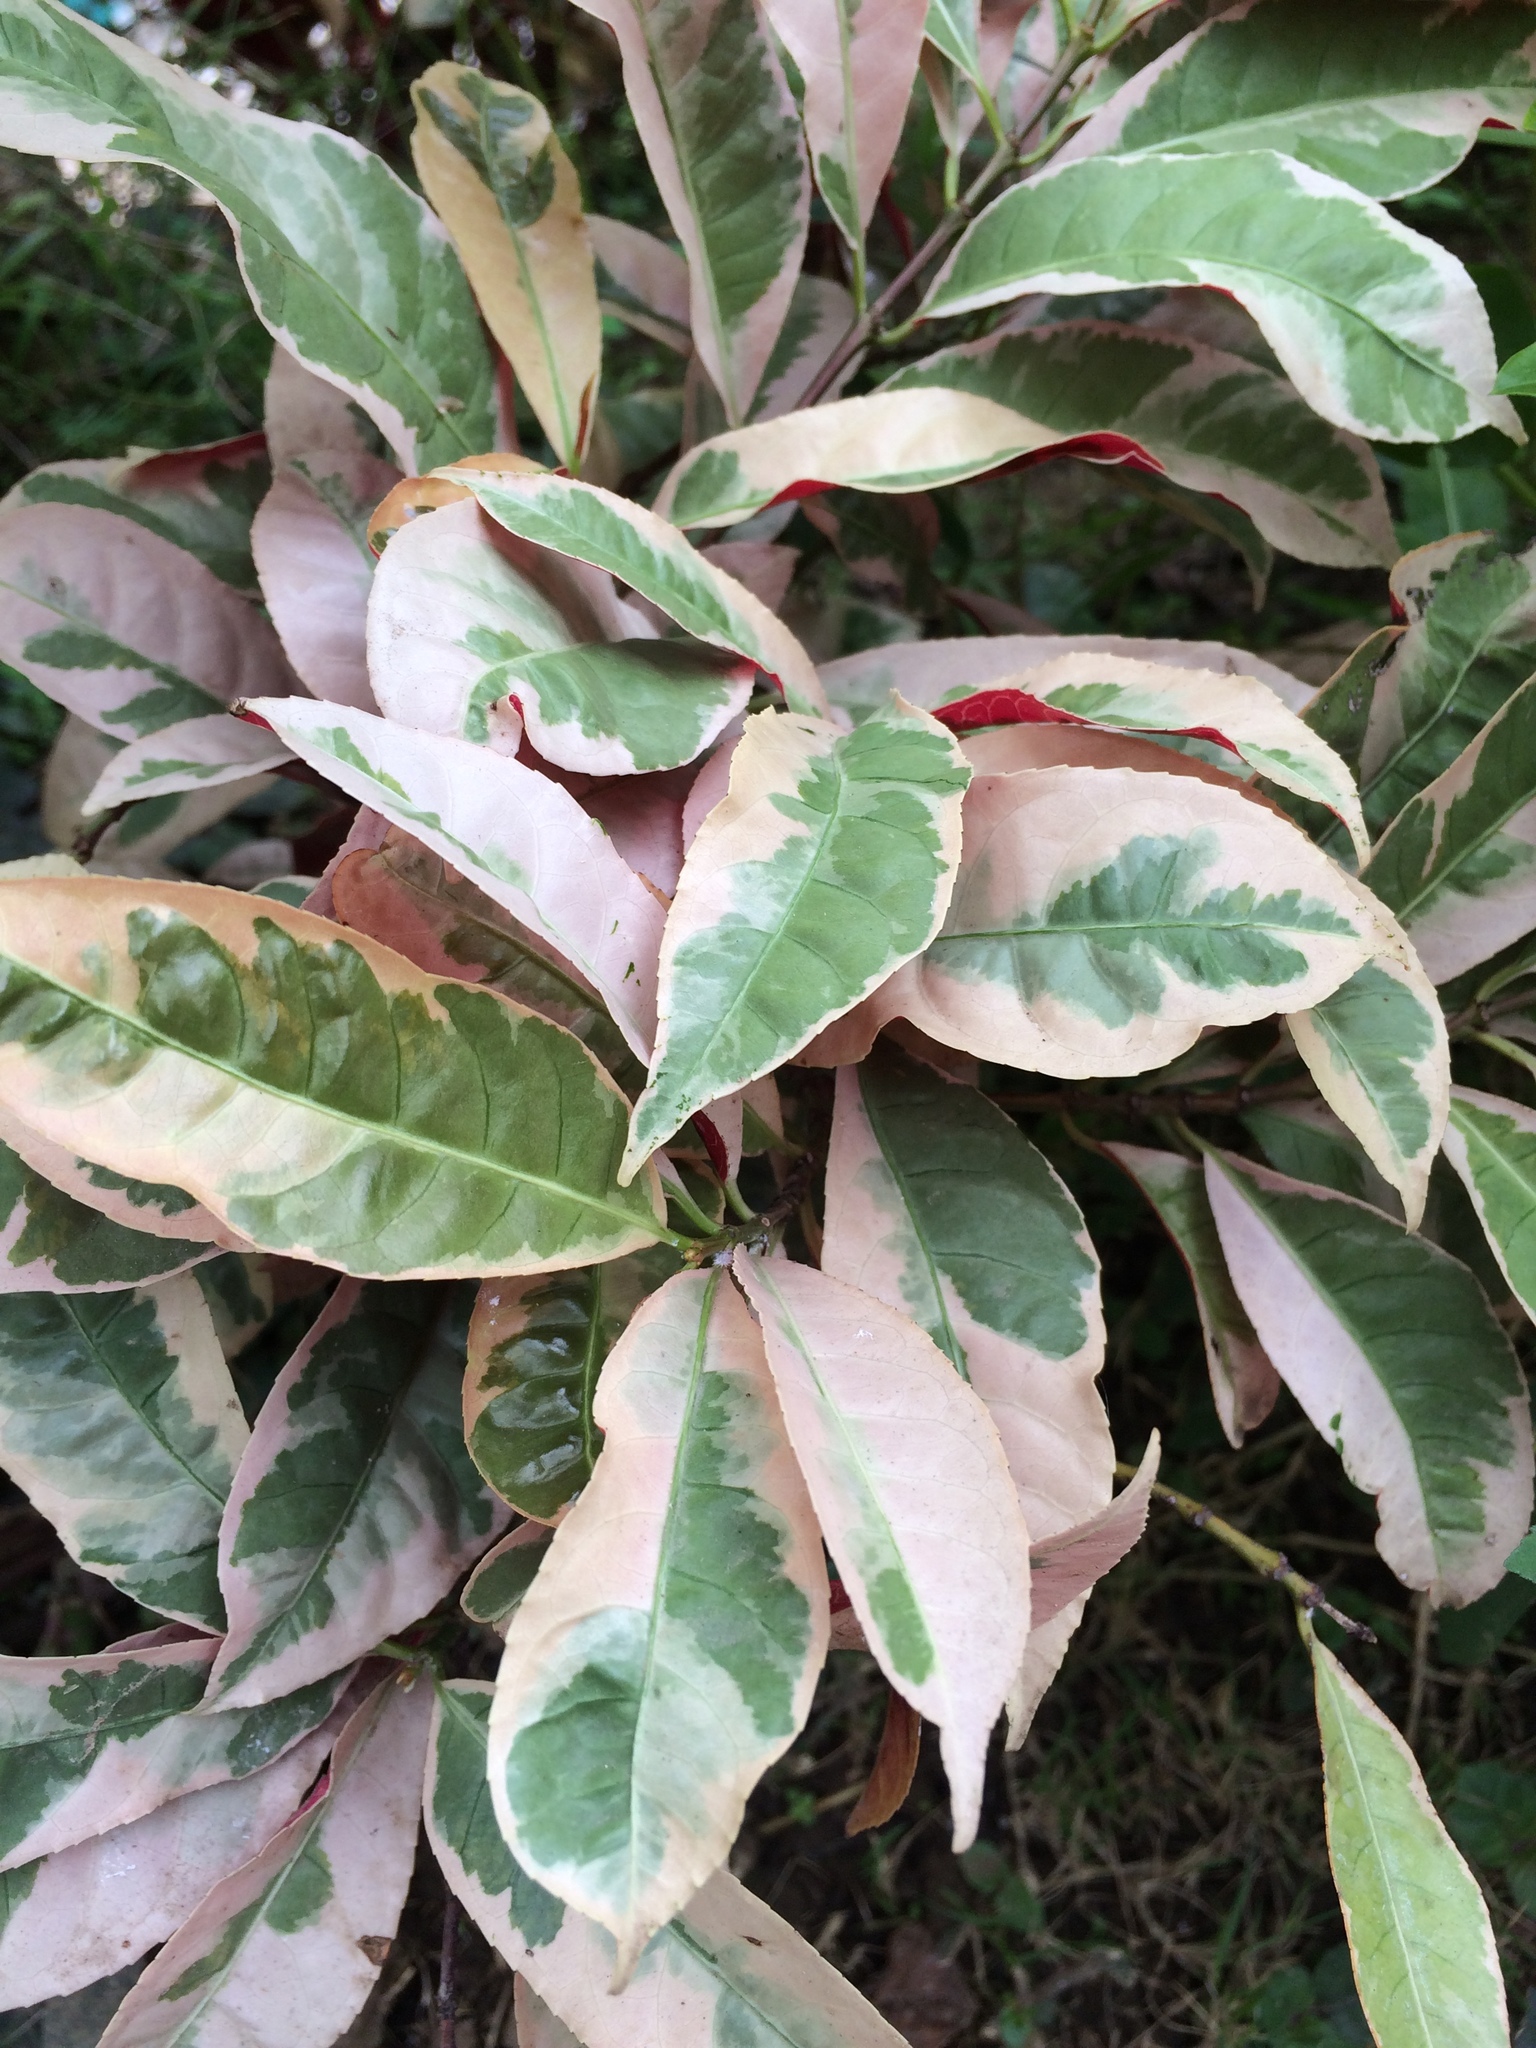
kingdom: Plantae
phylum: Tracheophyta
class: Magnoliopsida
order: Malpighiales
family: Euphorbiaceae
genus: Excoecaria
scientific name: Excoecaria cochinchinensis
